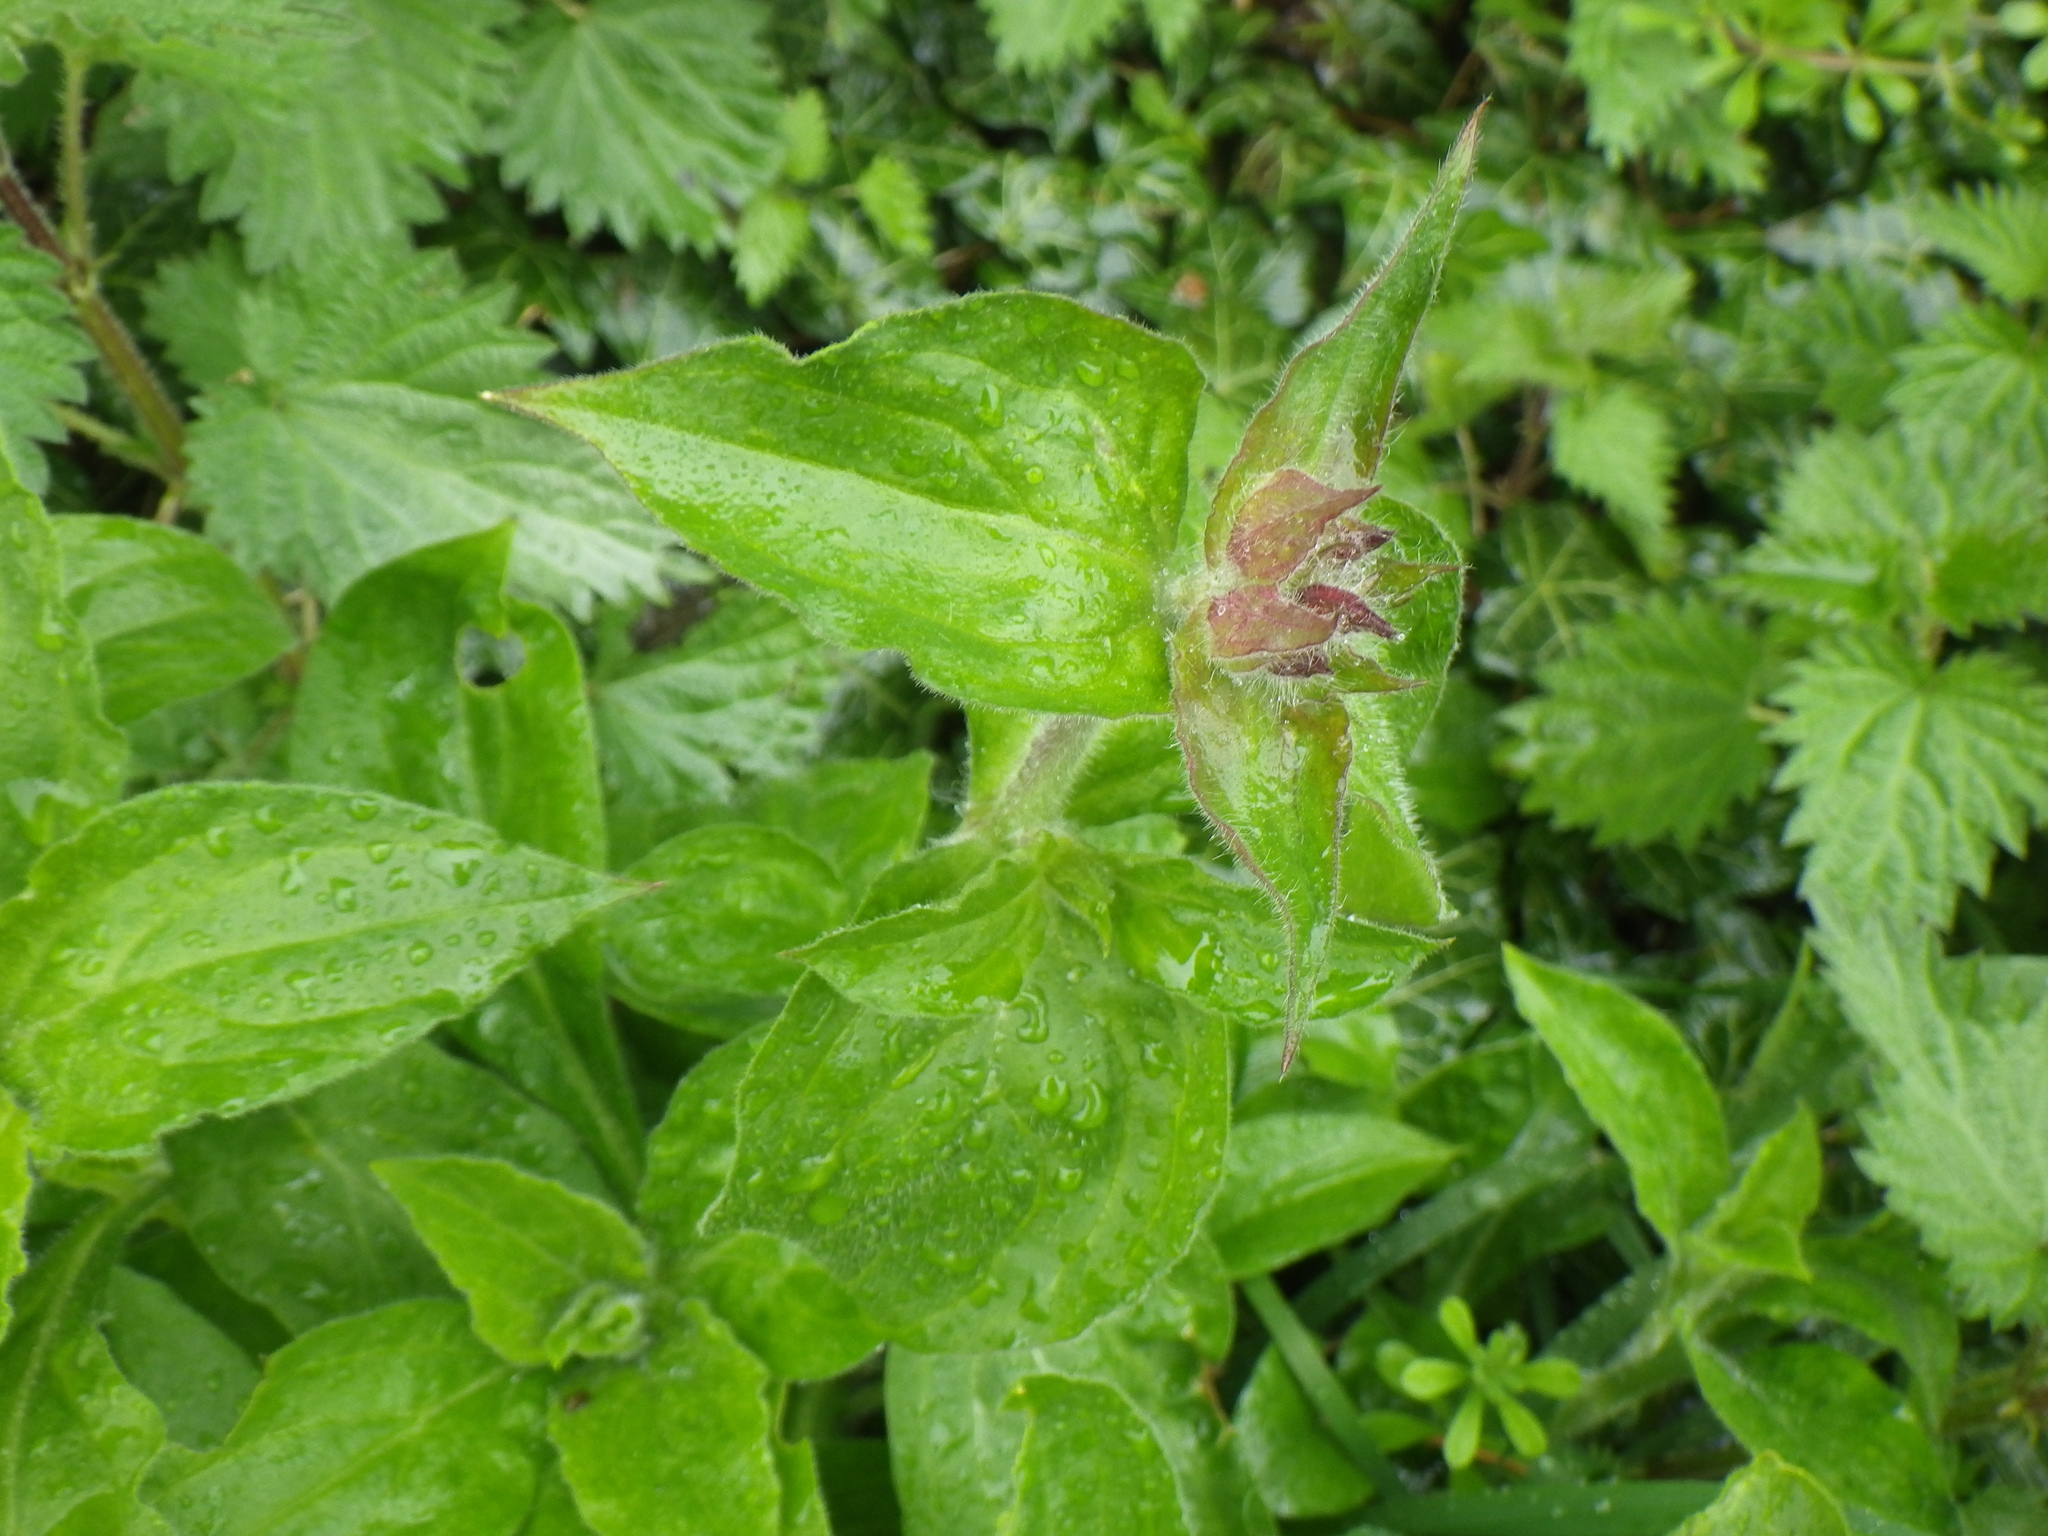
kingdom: Plantae
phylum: Tracheophyta
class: Magnoliopsida
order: Caryophyllales
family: Caryophyllaceae
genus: Silene
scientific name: Silene dioica
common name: Red campion
